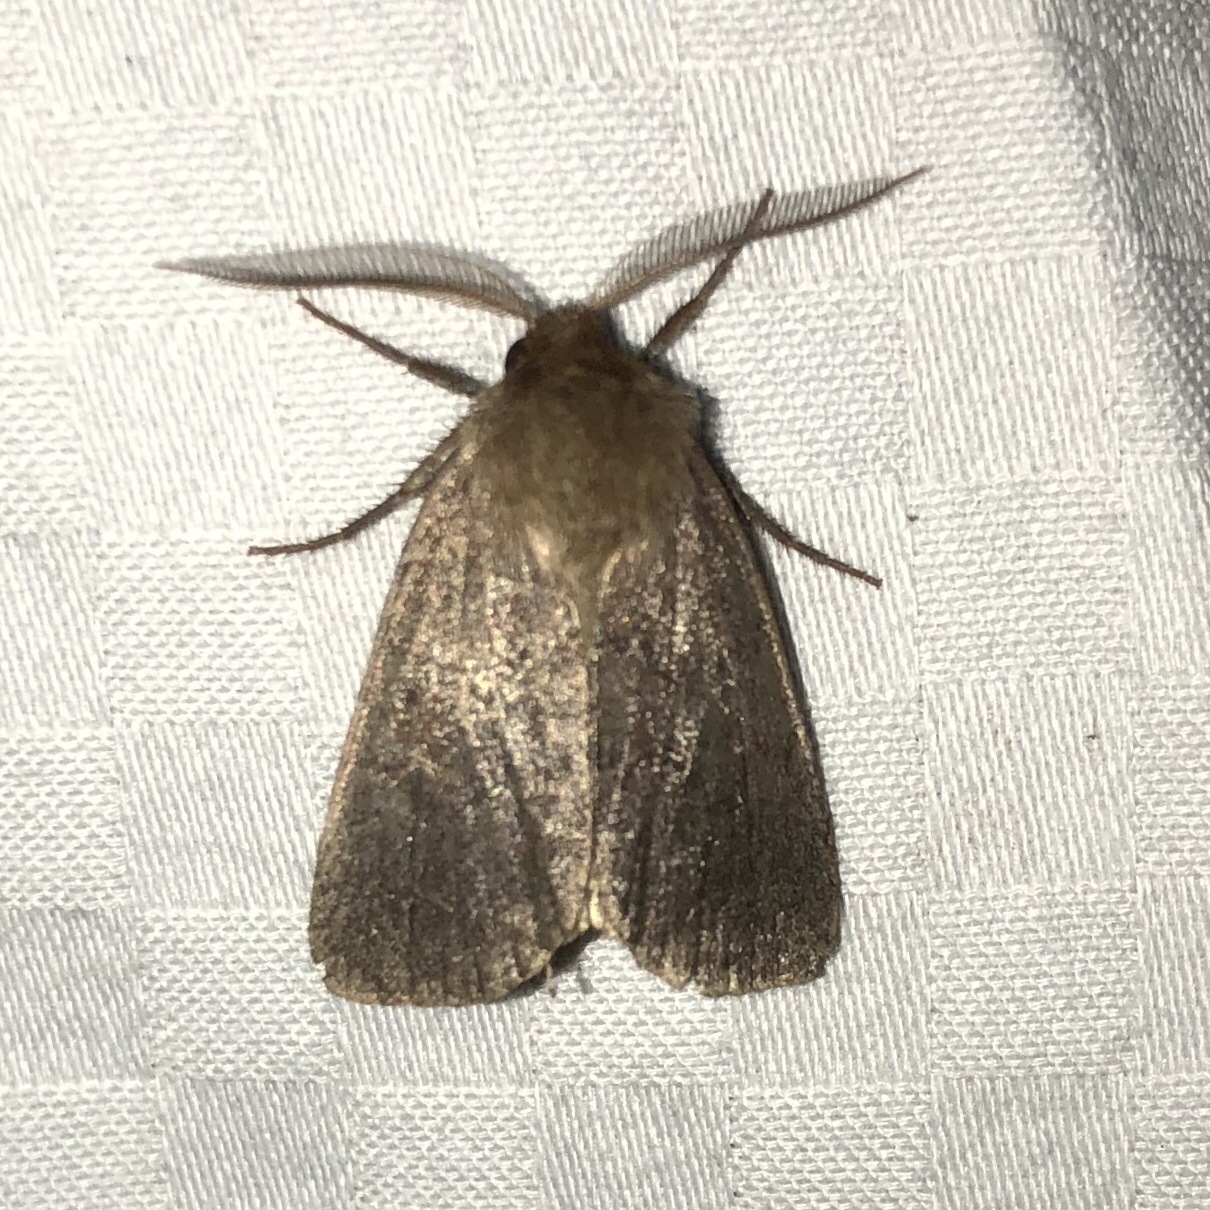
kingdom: Animalia
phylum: Arthropoda
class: Insecta
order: Lepidoptera
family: Noctuidae
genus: Hemipachnobia
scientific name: Hemipachnobia monochromatea
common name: Sundew cutworm moth
